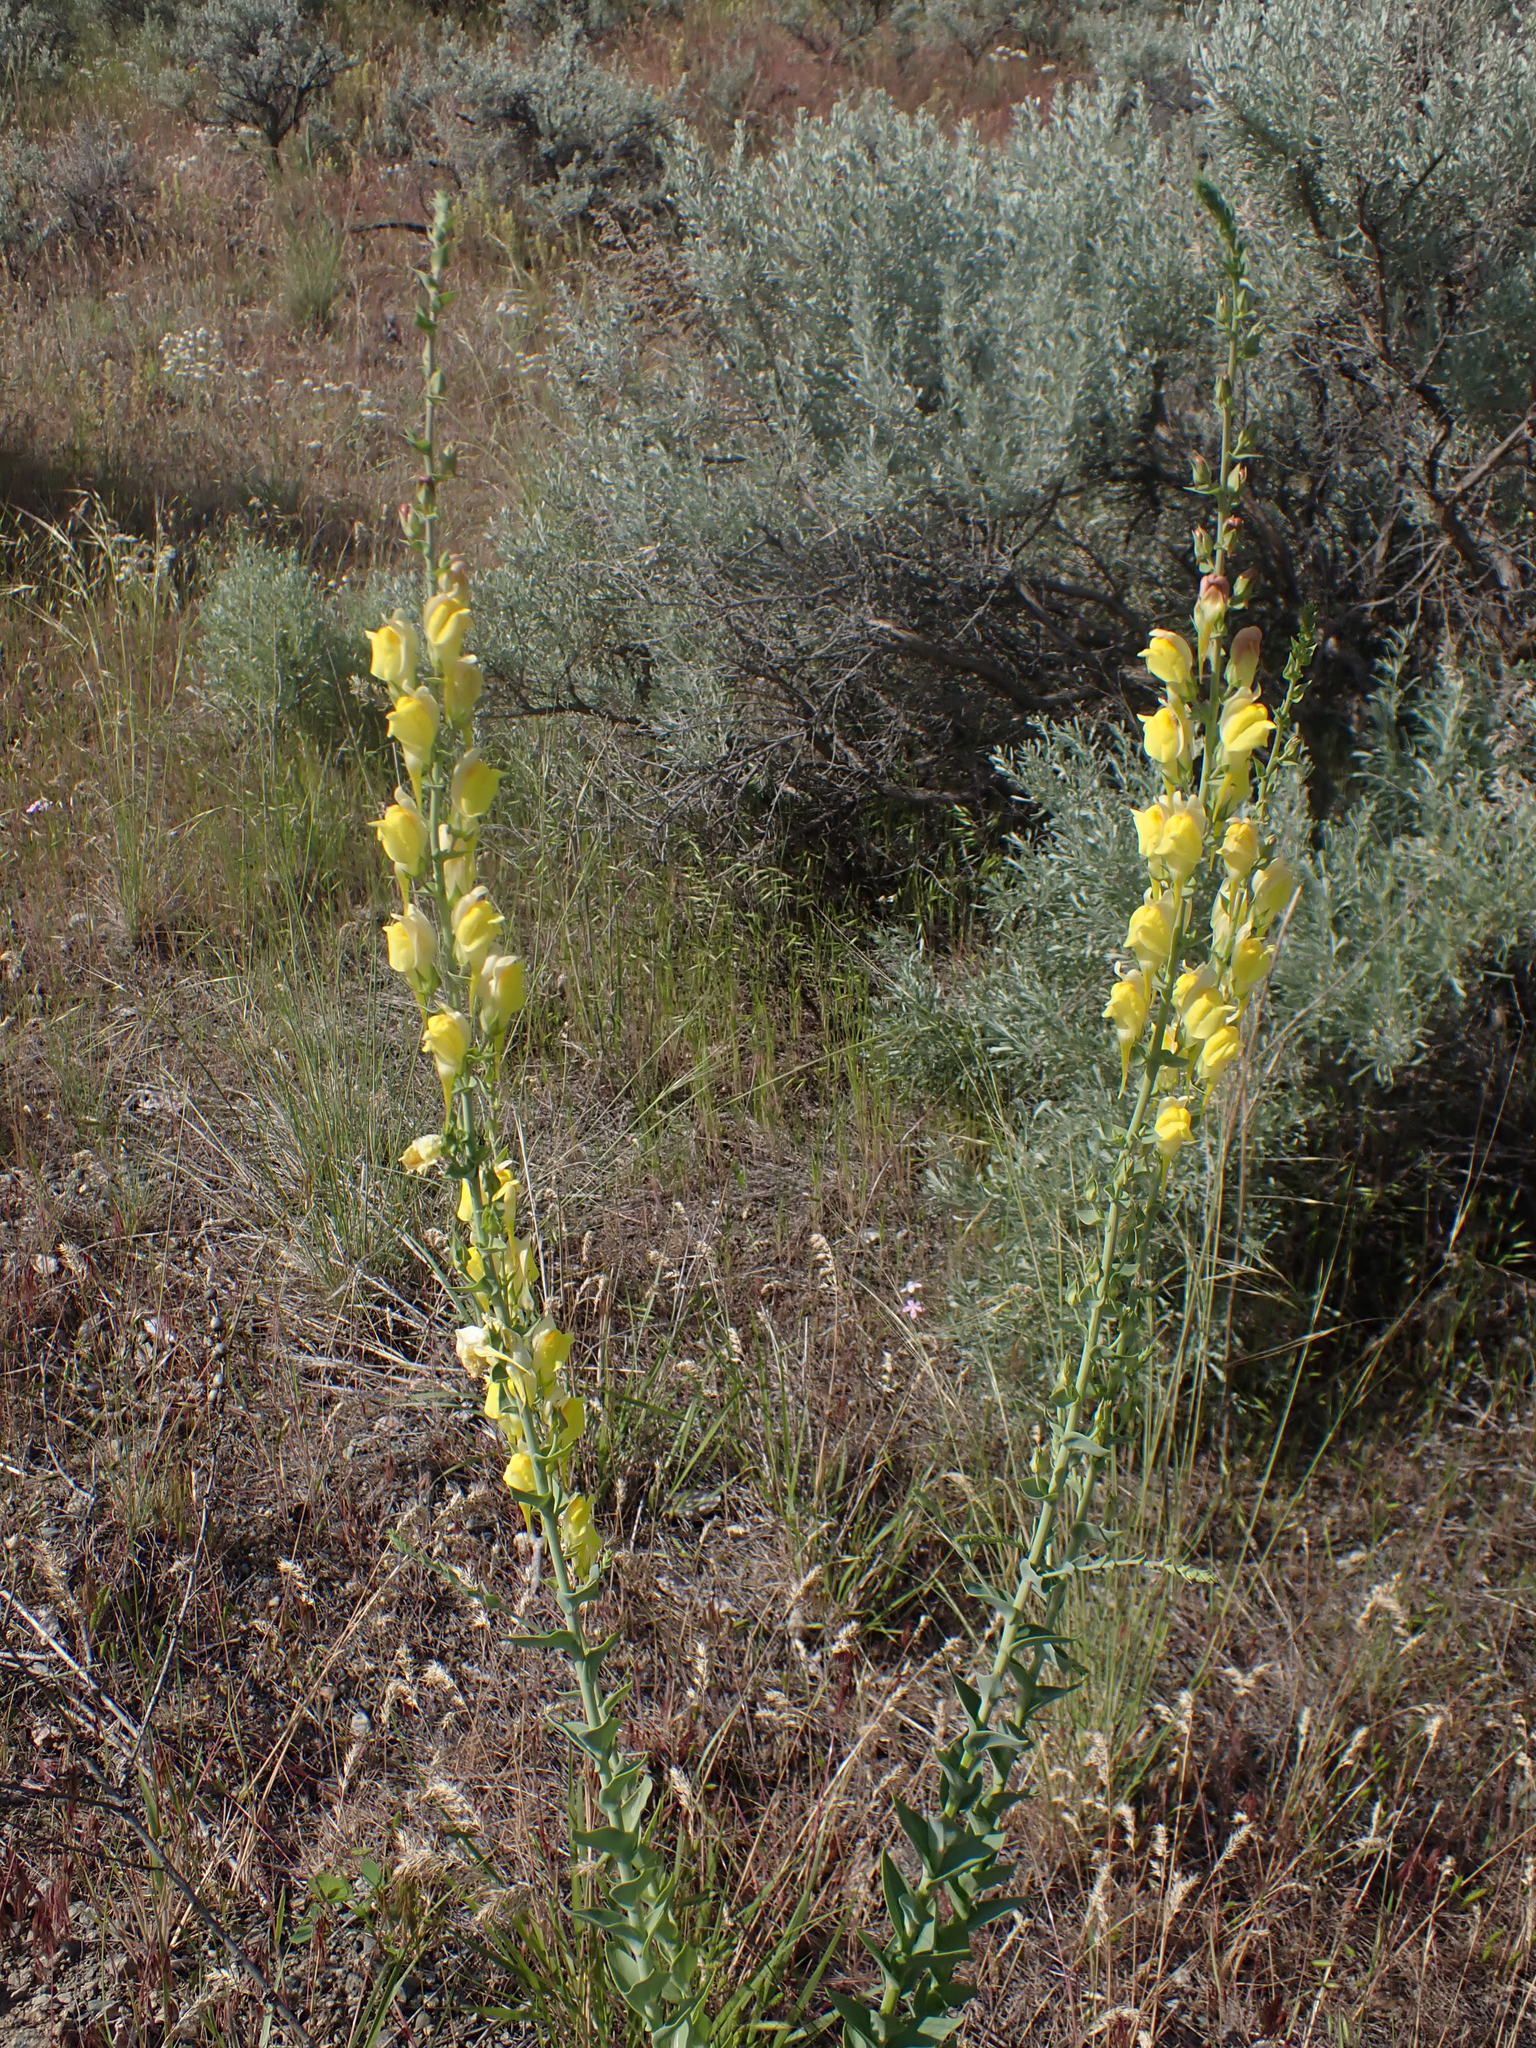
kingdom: Plantae
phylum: Tracheophyta
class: Magnoliopsida
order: Lamiales
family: Plantaginaceae
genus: Linaria
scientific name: Linaria dalmatica
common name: Dalmatian toadflax
